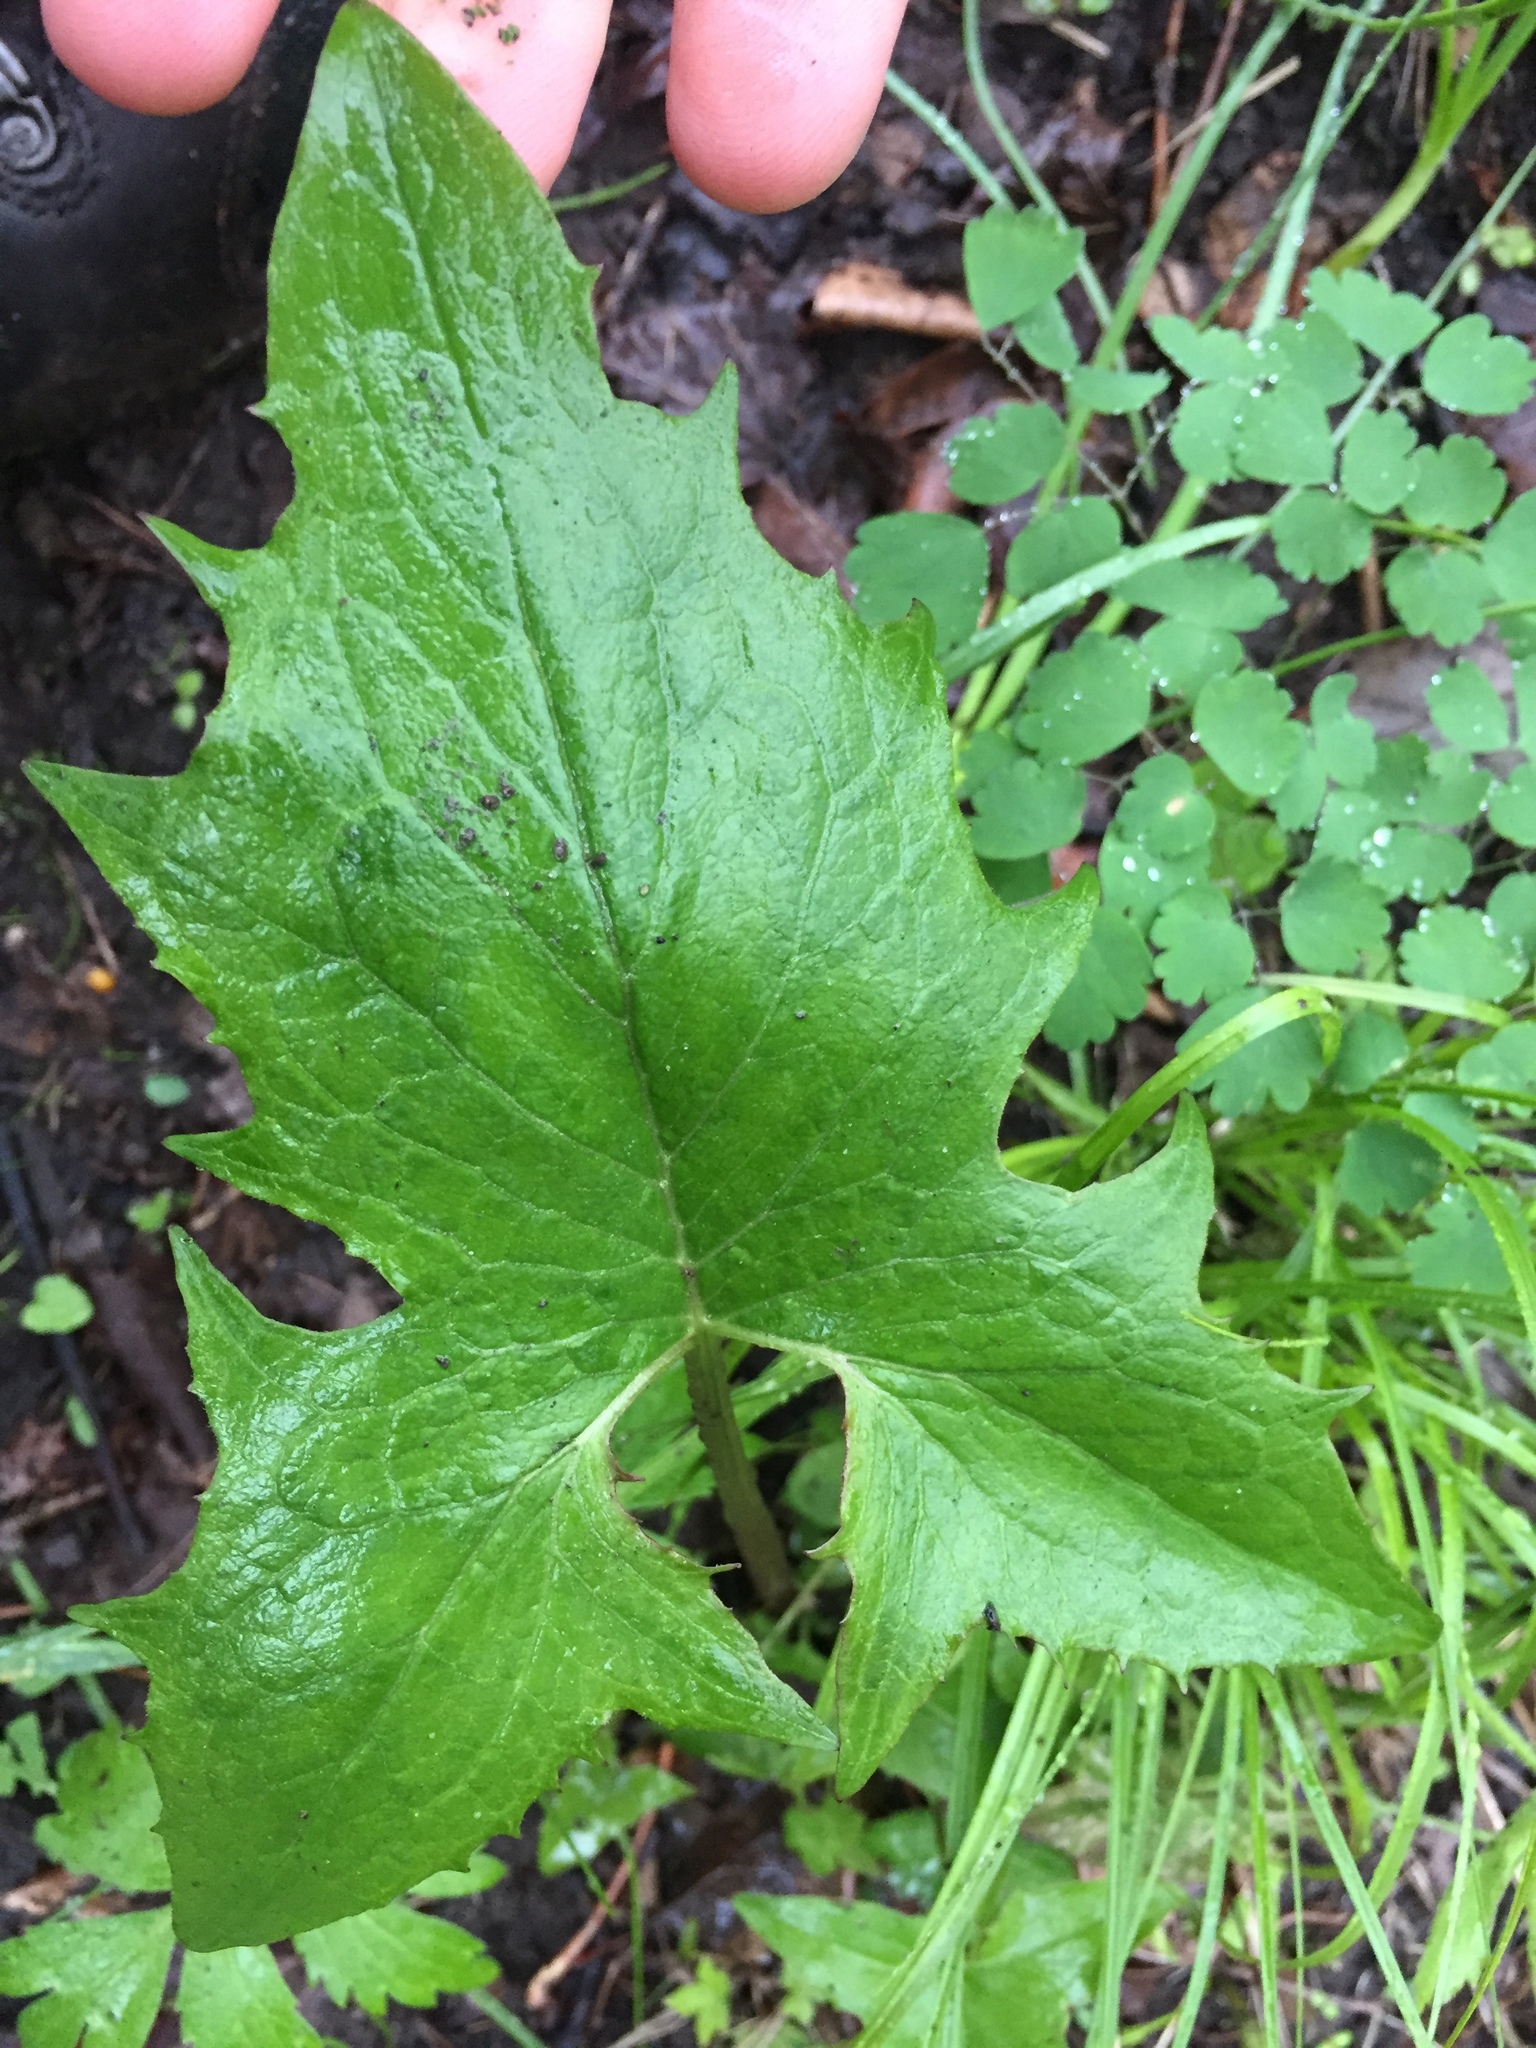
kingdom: Plantae
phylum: Tracheophyta
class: Magnoliopsida
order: Asterales
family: Asteraceae
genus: Nabalus
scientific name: Nabalus albus
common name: White rattlesnakeroot
